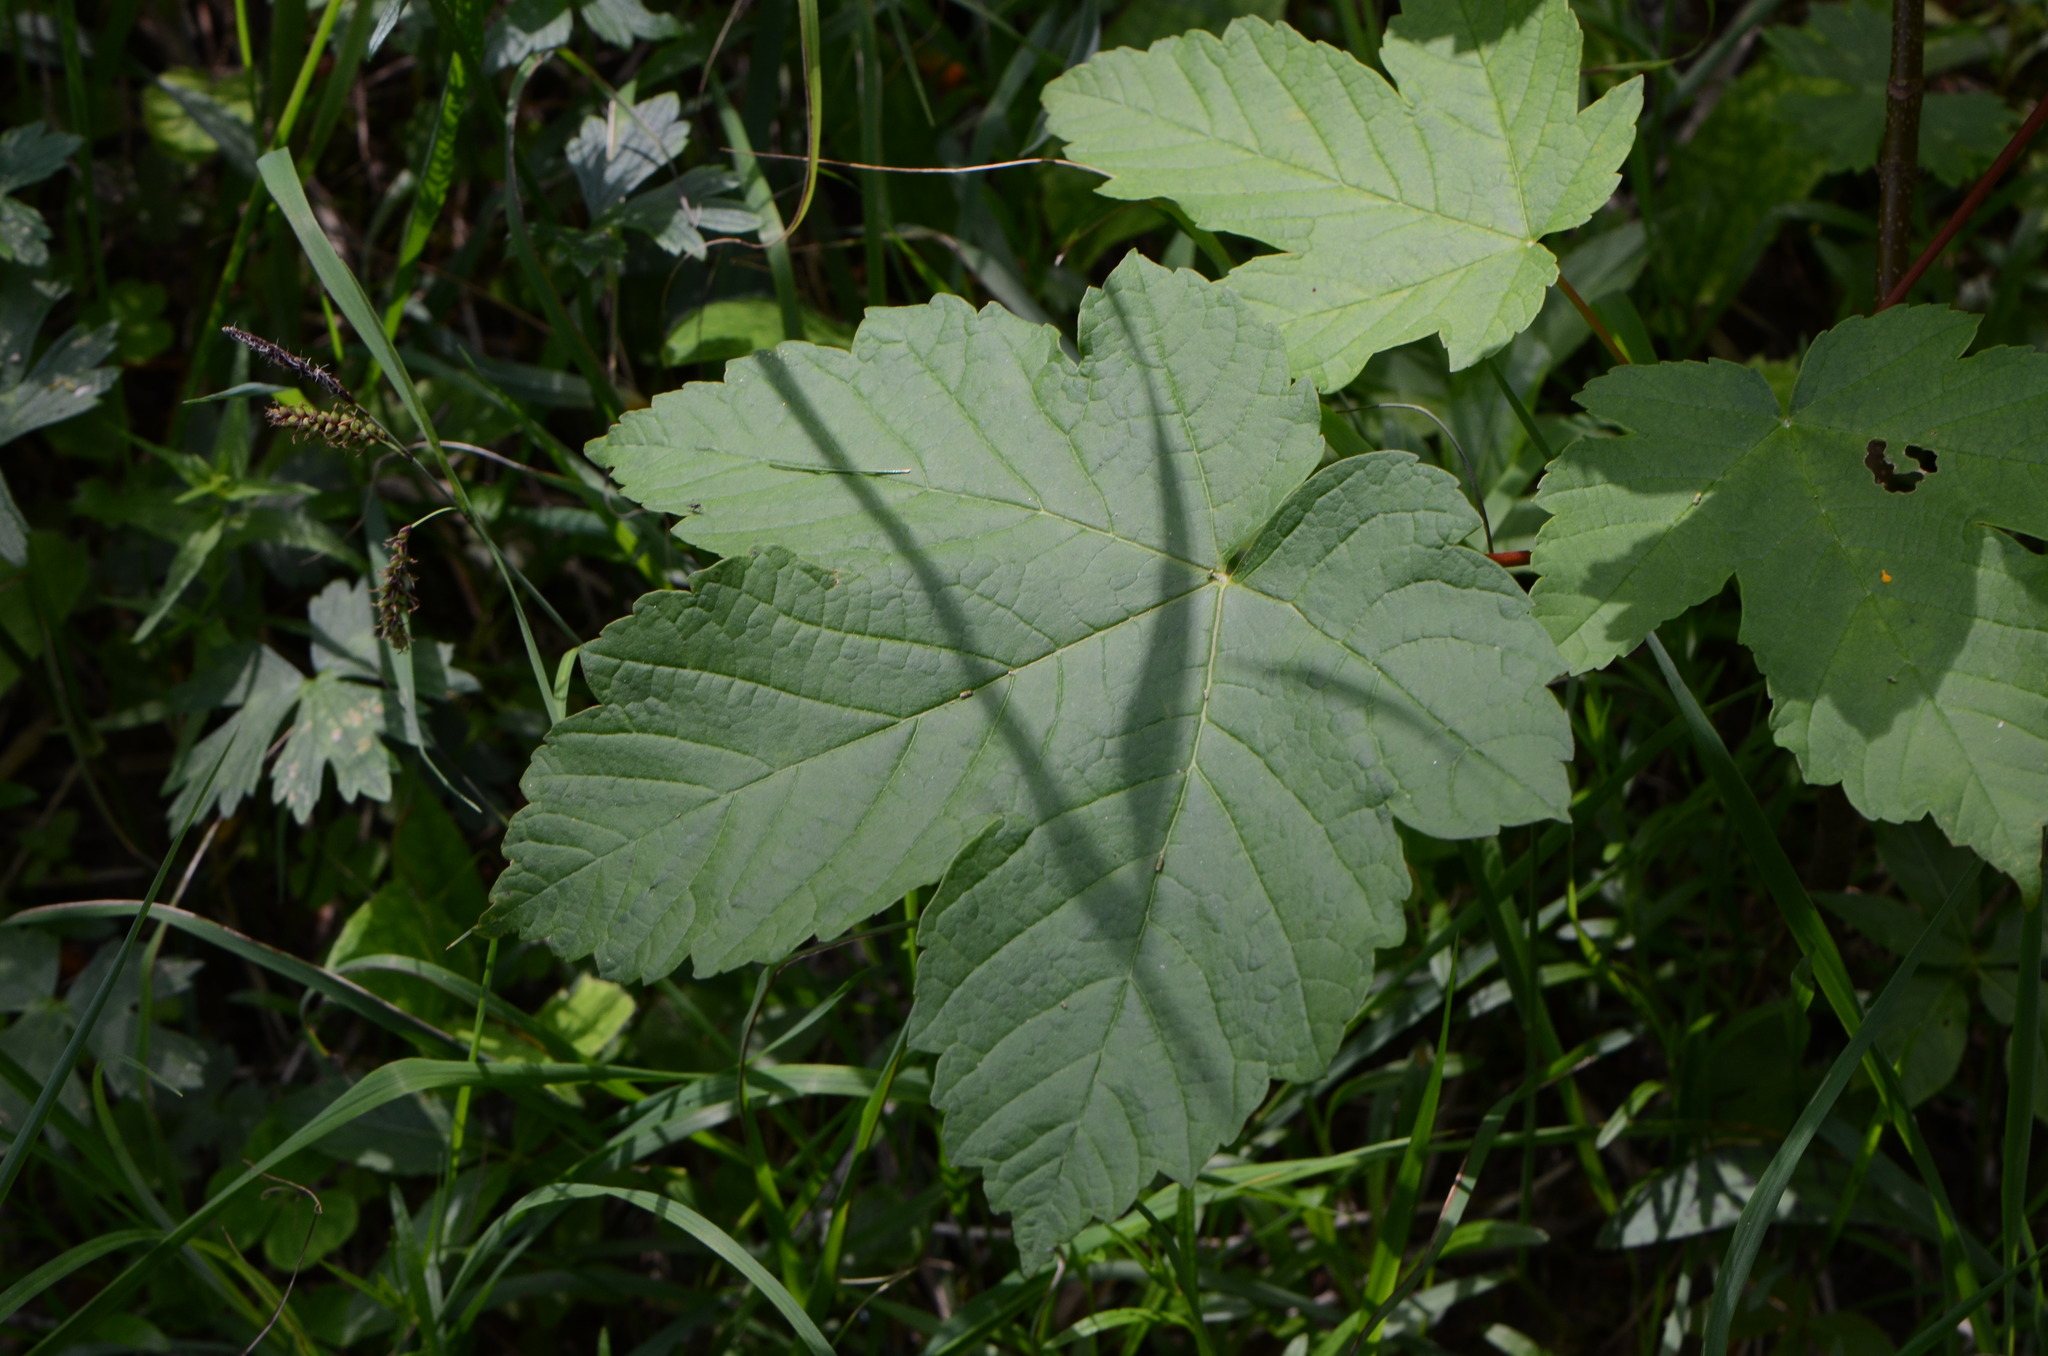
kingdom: Plantae
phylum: Tracheophyta
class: Magnoliopsida
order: Sapindales
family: Sapindaceae
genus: Acer
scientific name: Acer pseudoplatanus
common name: Sycamore
